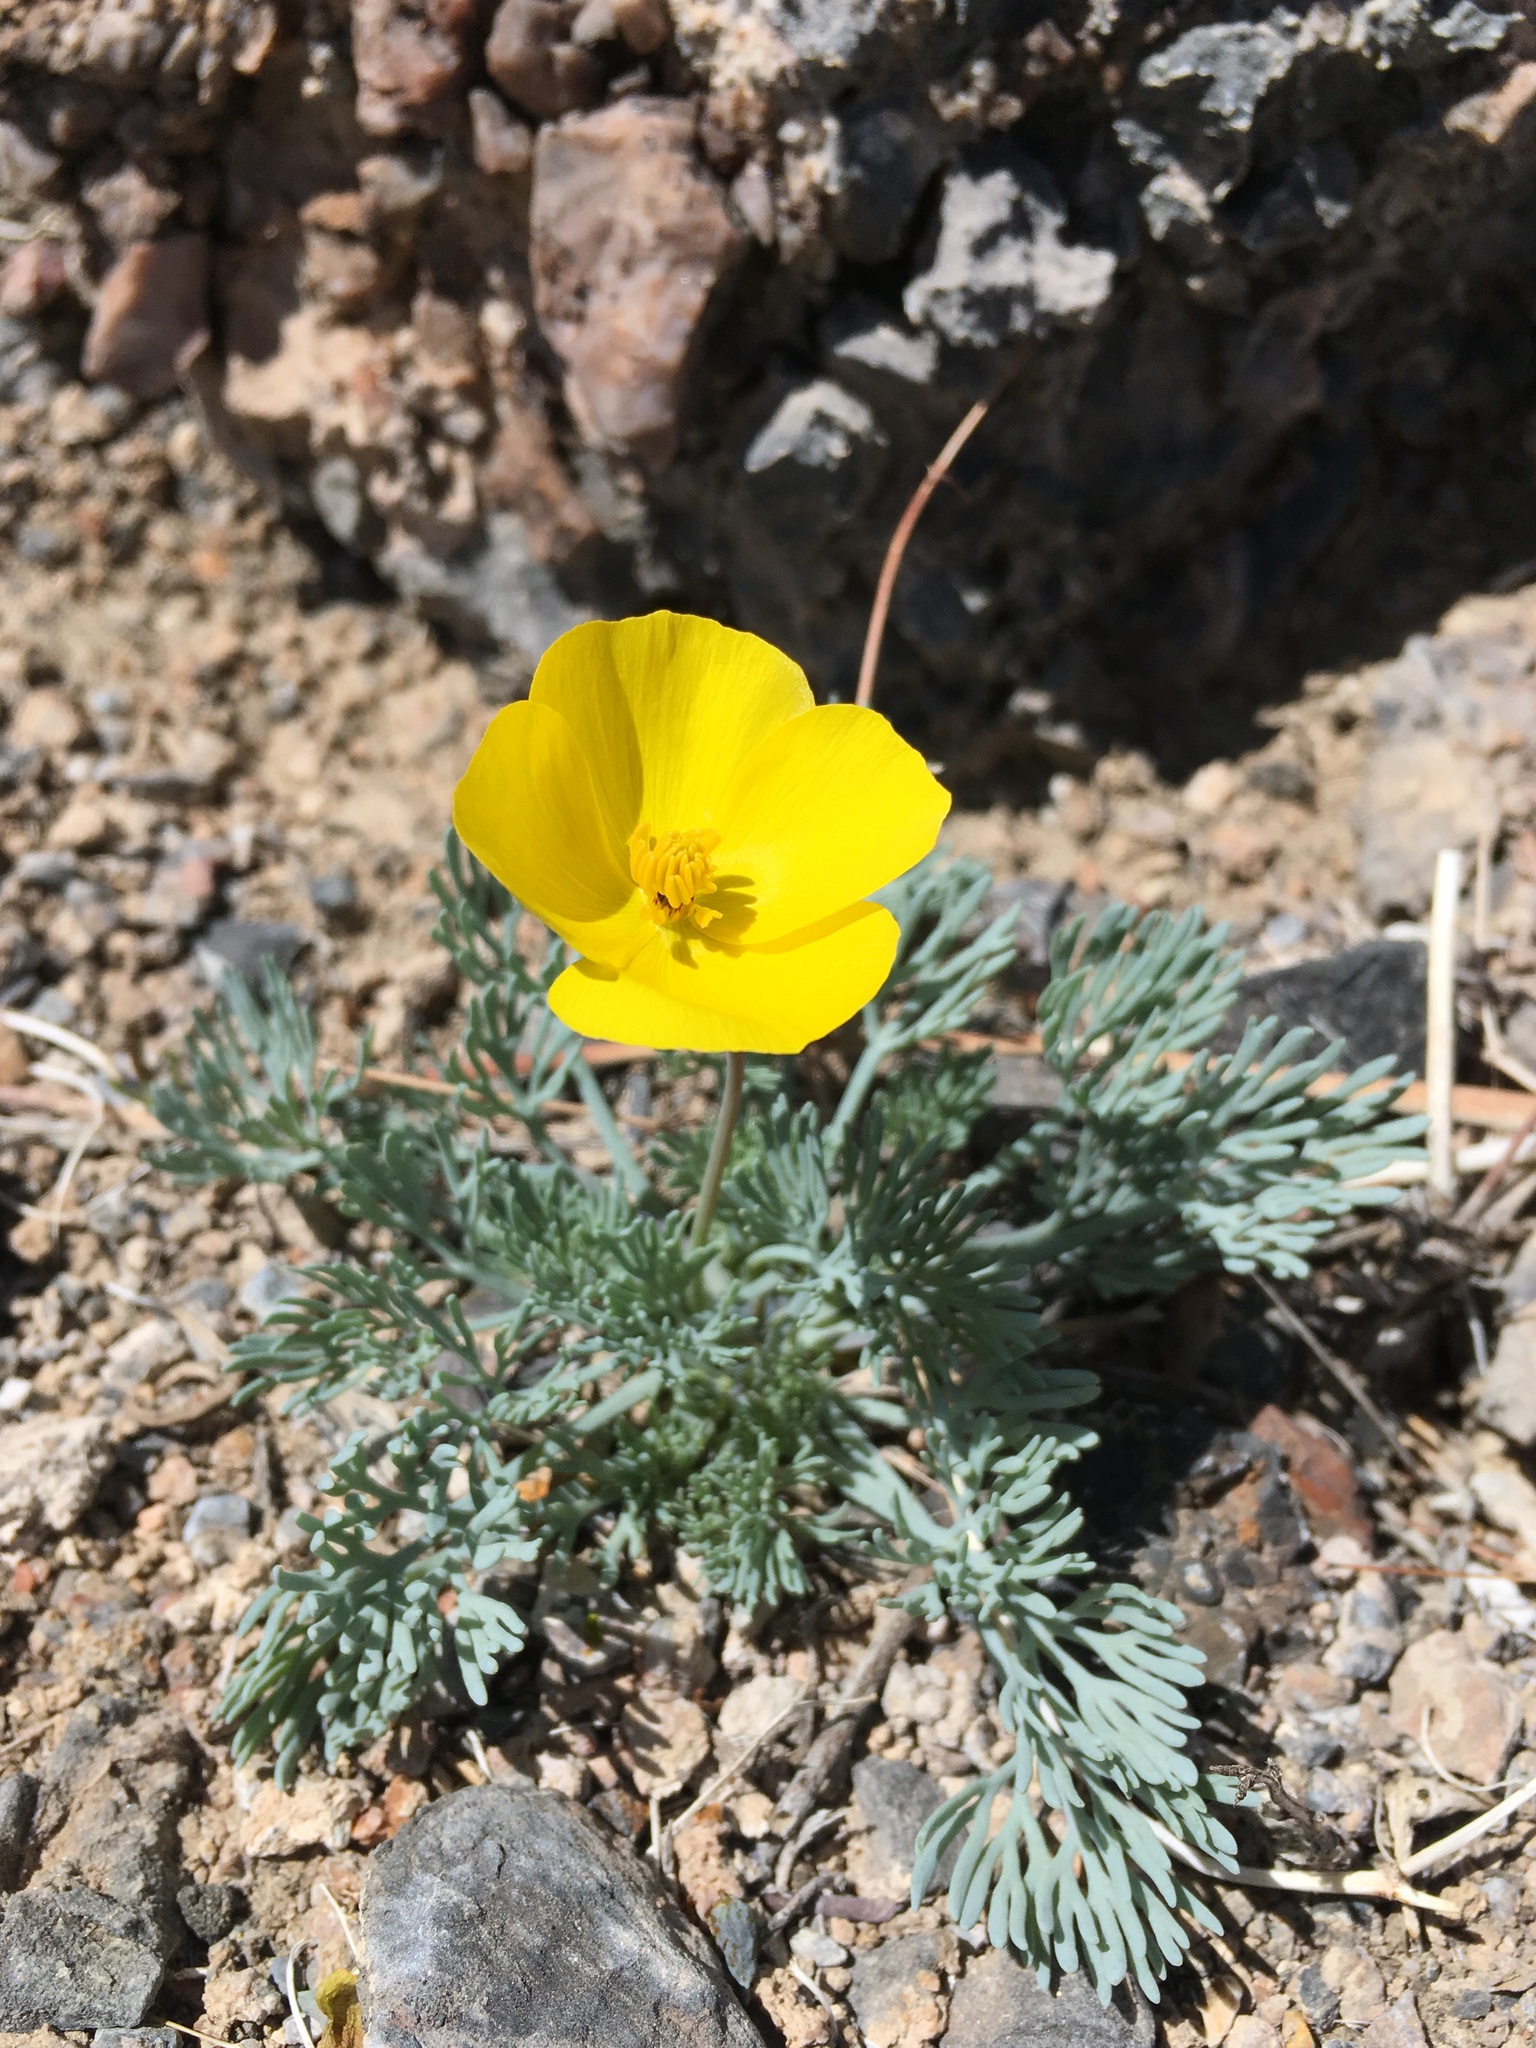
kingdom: Plantae
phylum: Tracheophyta
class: Magnoliopsida
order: Ranunculales
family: Papaveraceae
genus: Eschscholzia
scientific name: Eschscholzia glyptosperma
